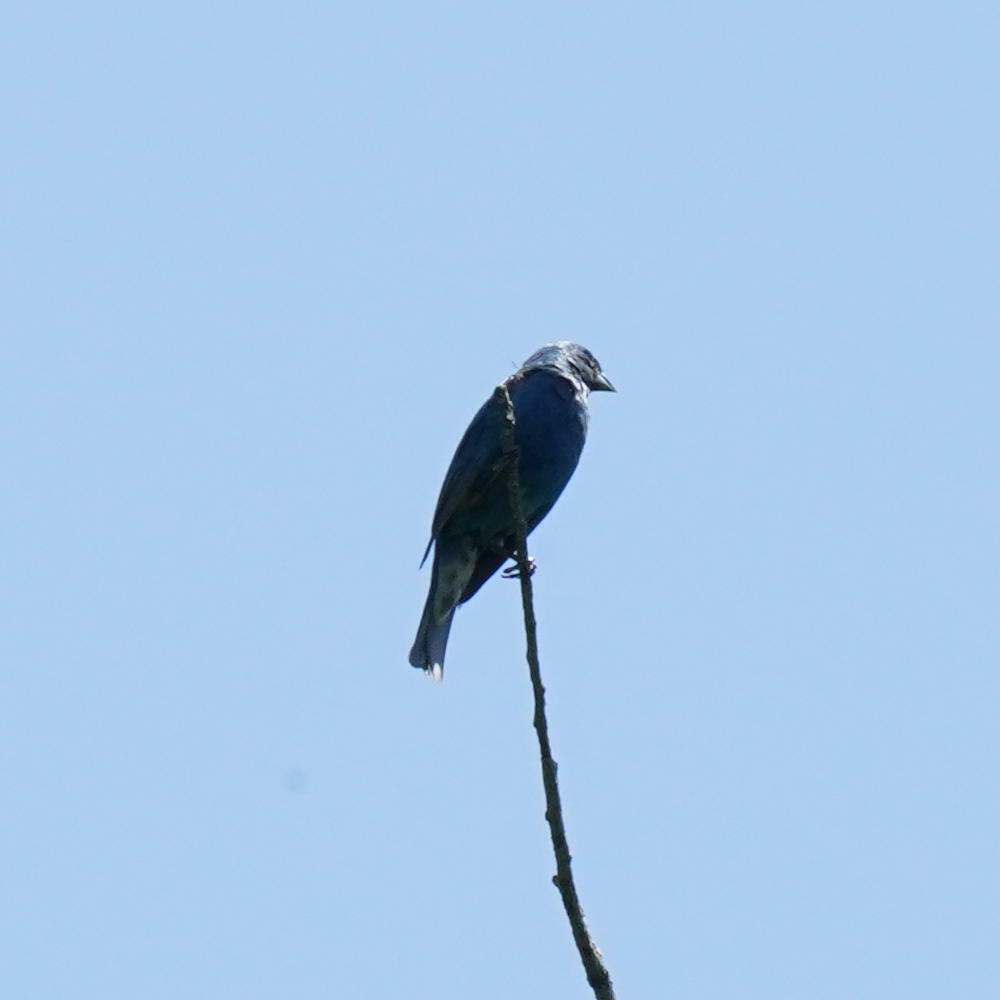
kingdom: Animalia
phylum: Chordata
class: Aves
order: Passeriformes
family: Cardinalidae
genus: Passerina
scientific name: Passerina cyanea
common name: Indigo bunting
